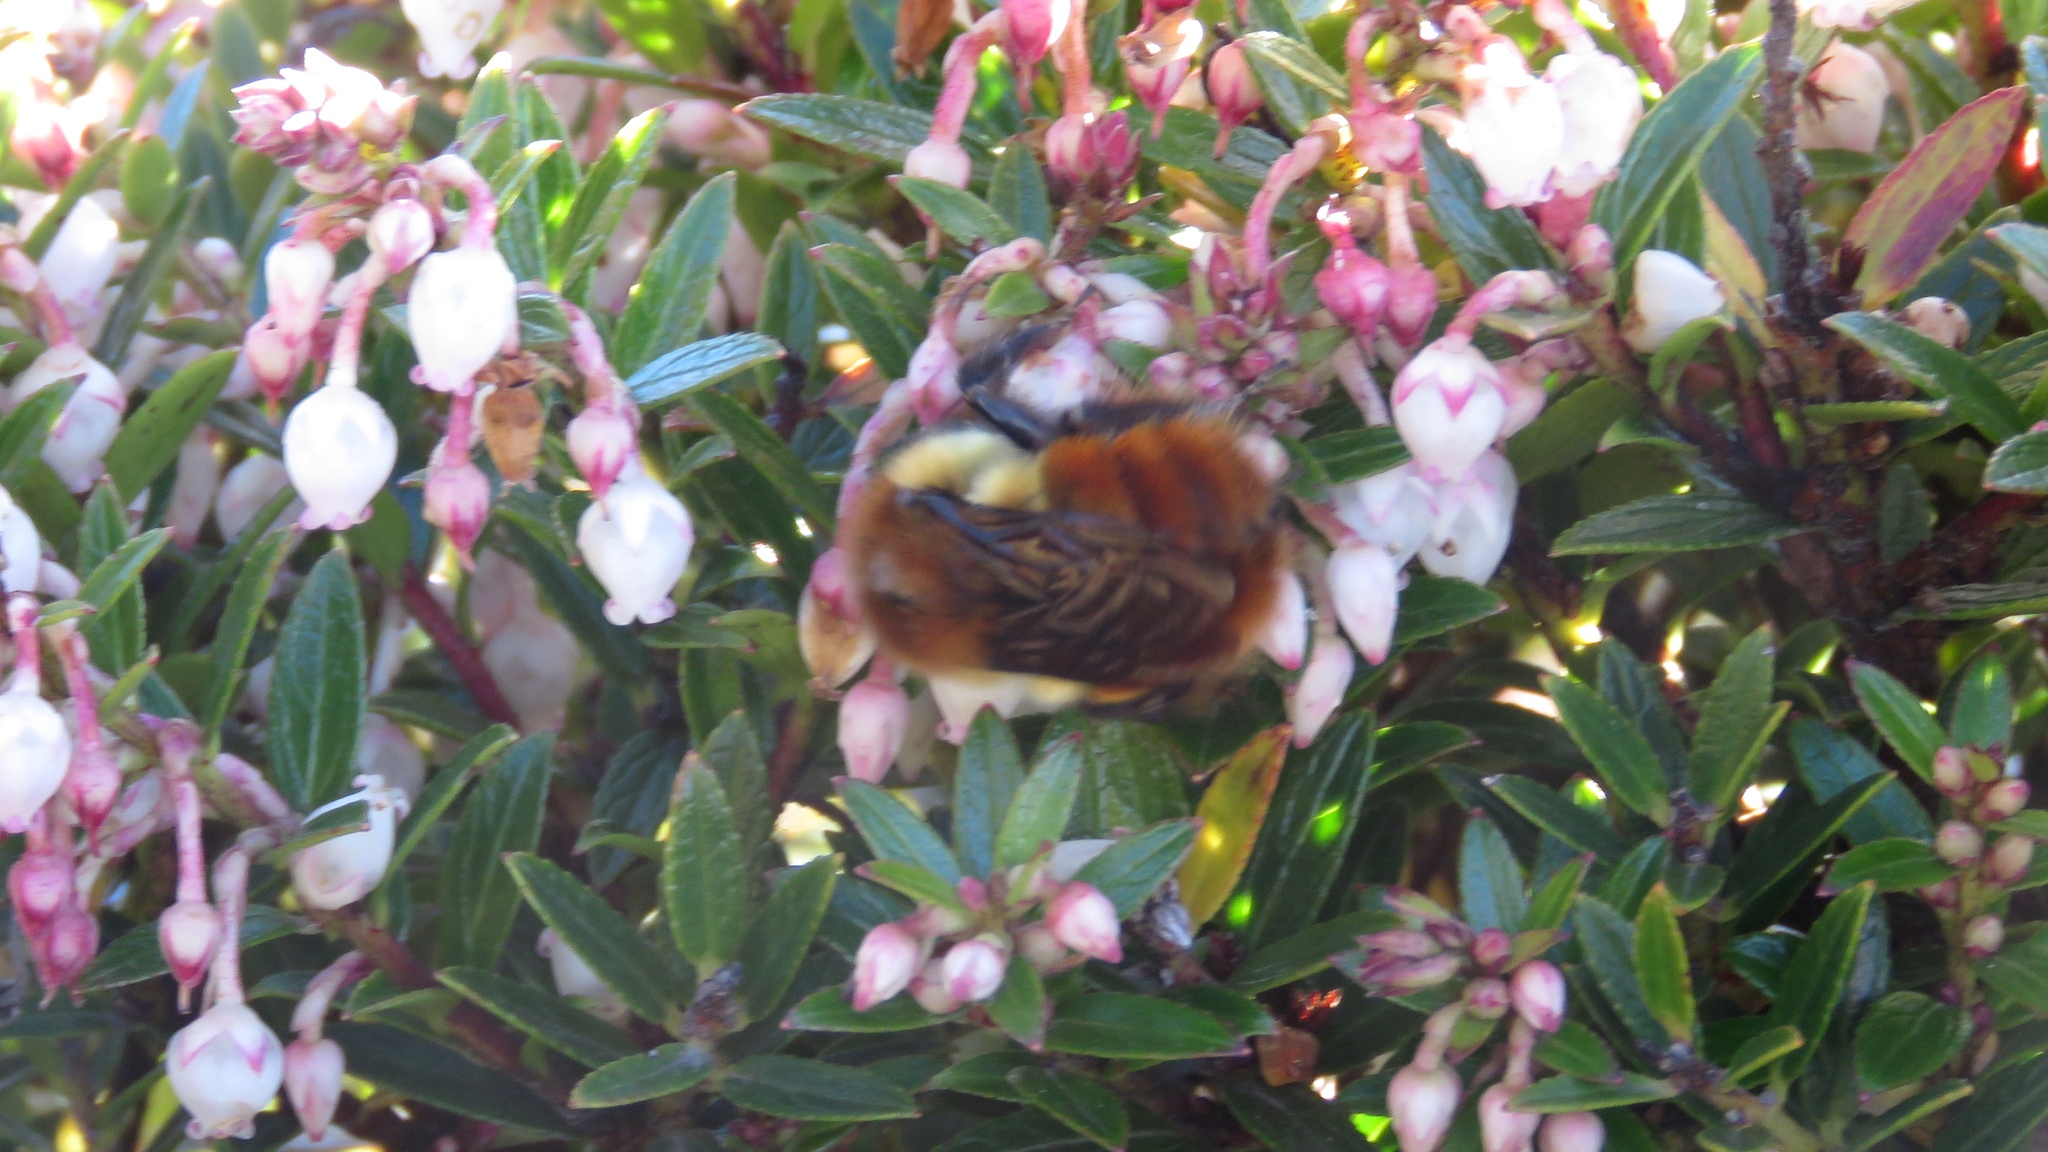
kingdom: Animalia
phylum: Arthropoda
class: Insecta
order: Hymenoptera
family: Apidae
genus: Bombus
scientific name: Bombus ephippiatus
